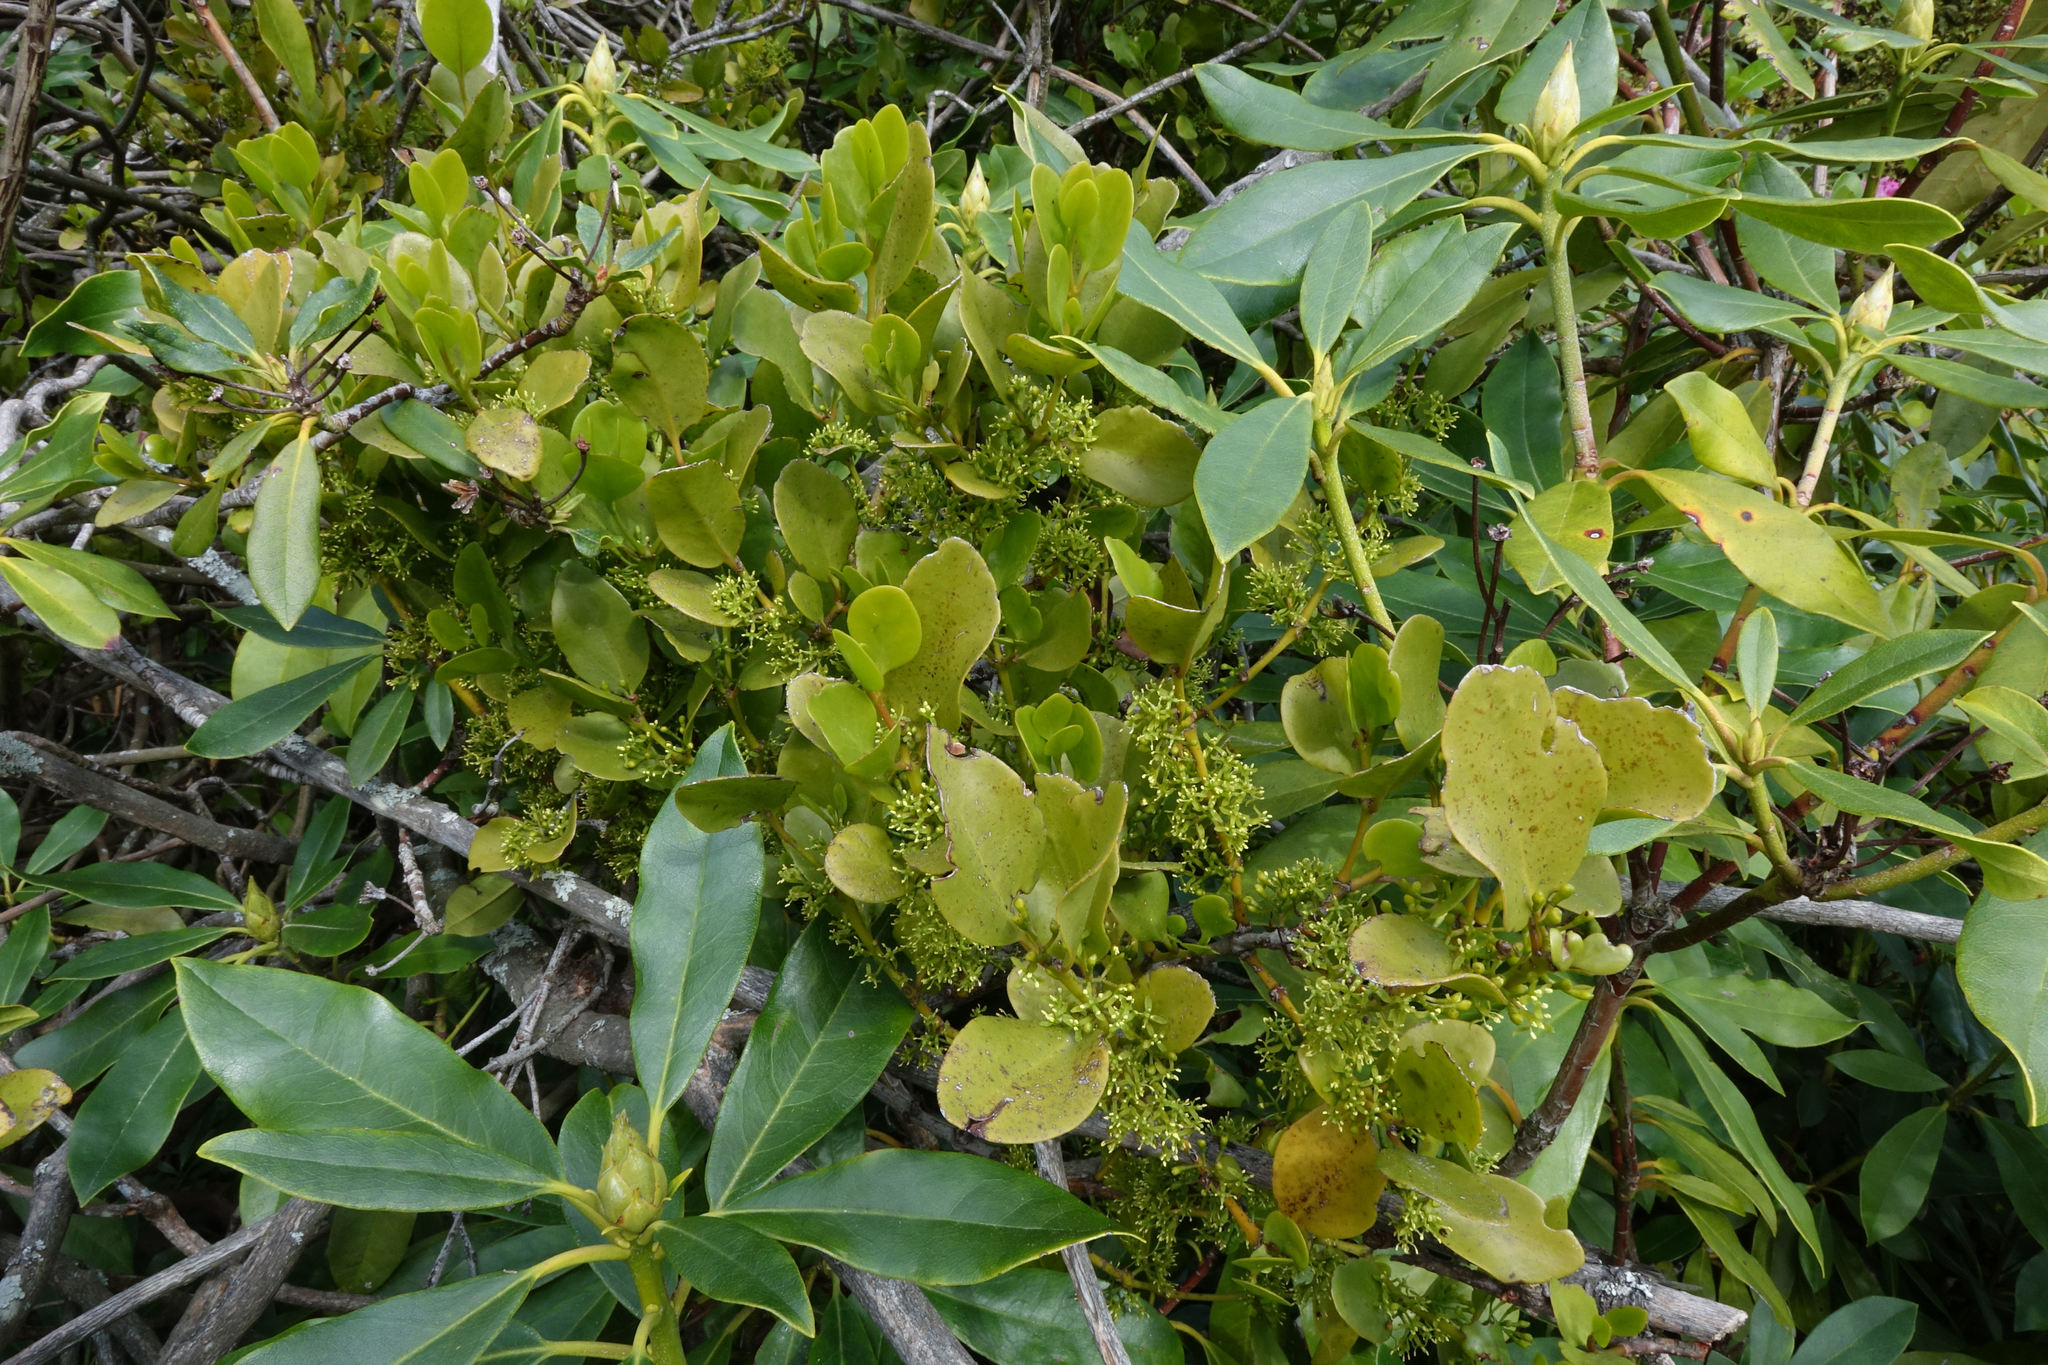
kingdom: Plantae
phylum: Tracheophyta
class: Magnoliopsida
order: Santalales
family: Loranthaceae
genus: Ileostylus
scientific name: Ileostylus micranthus
